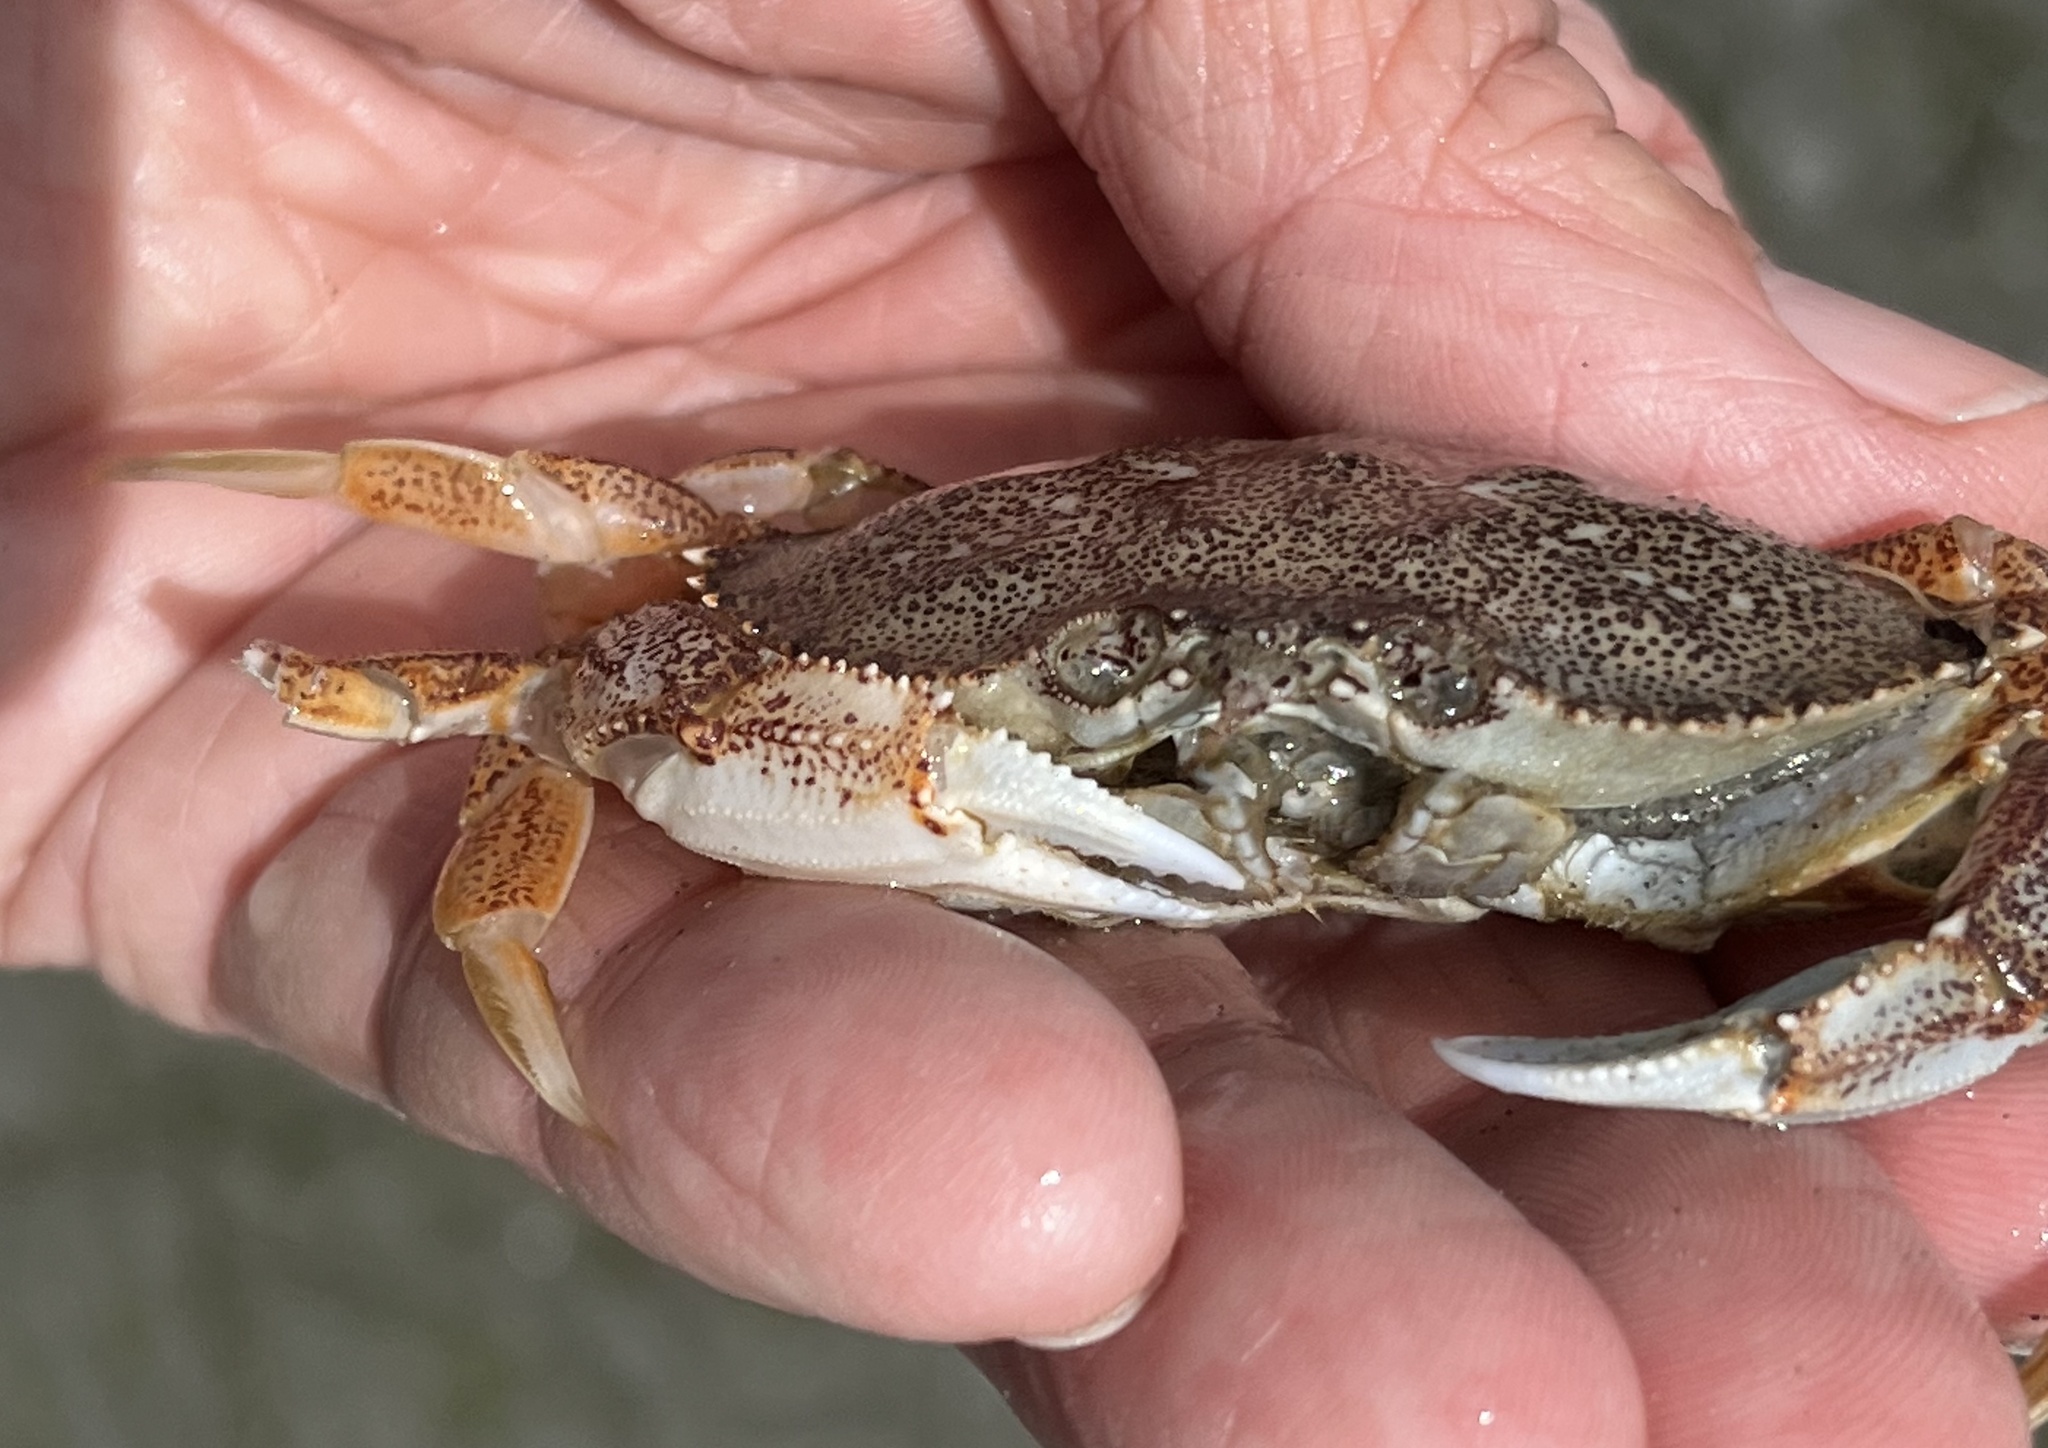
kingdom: Animalia
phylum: Arthropoda
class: Malacostraca
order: Decapoda
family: Cancridae
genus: Metacarcinus
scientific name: Metacarcinus magister
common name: Californian crab
